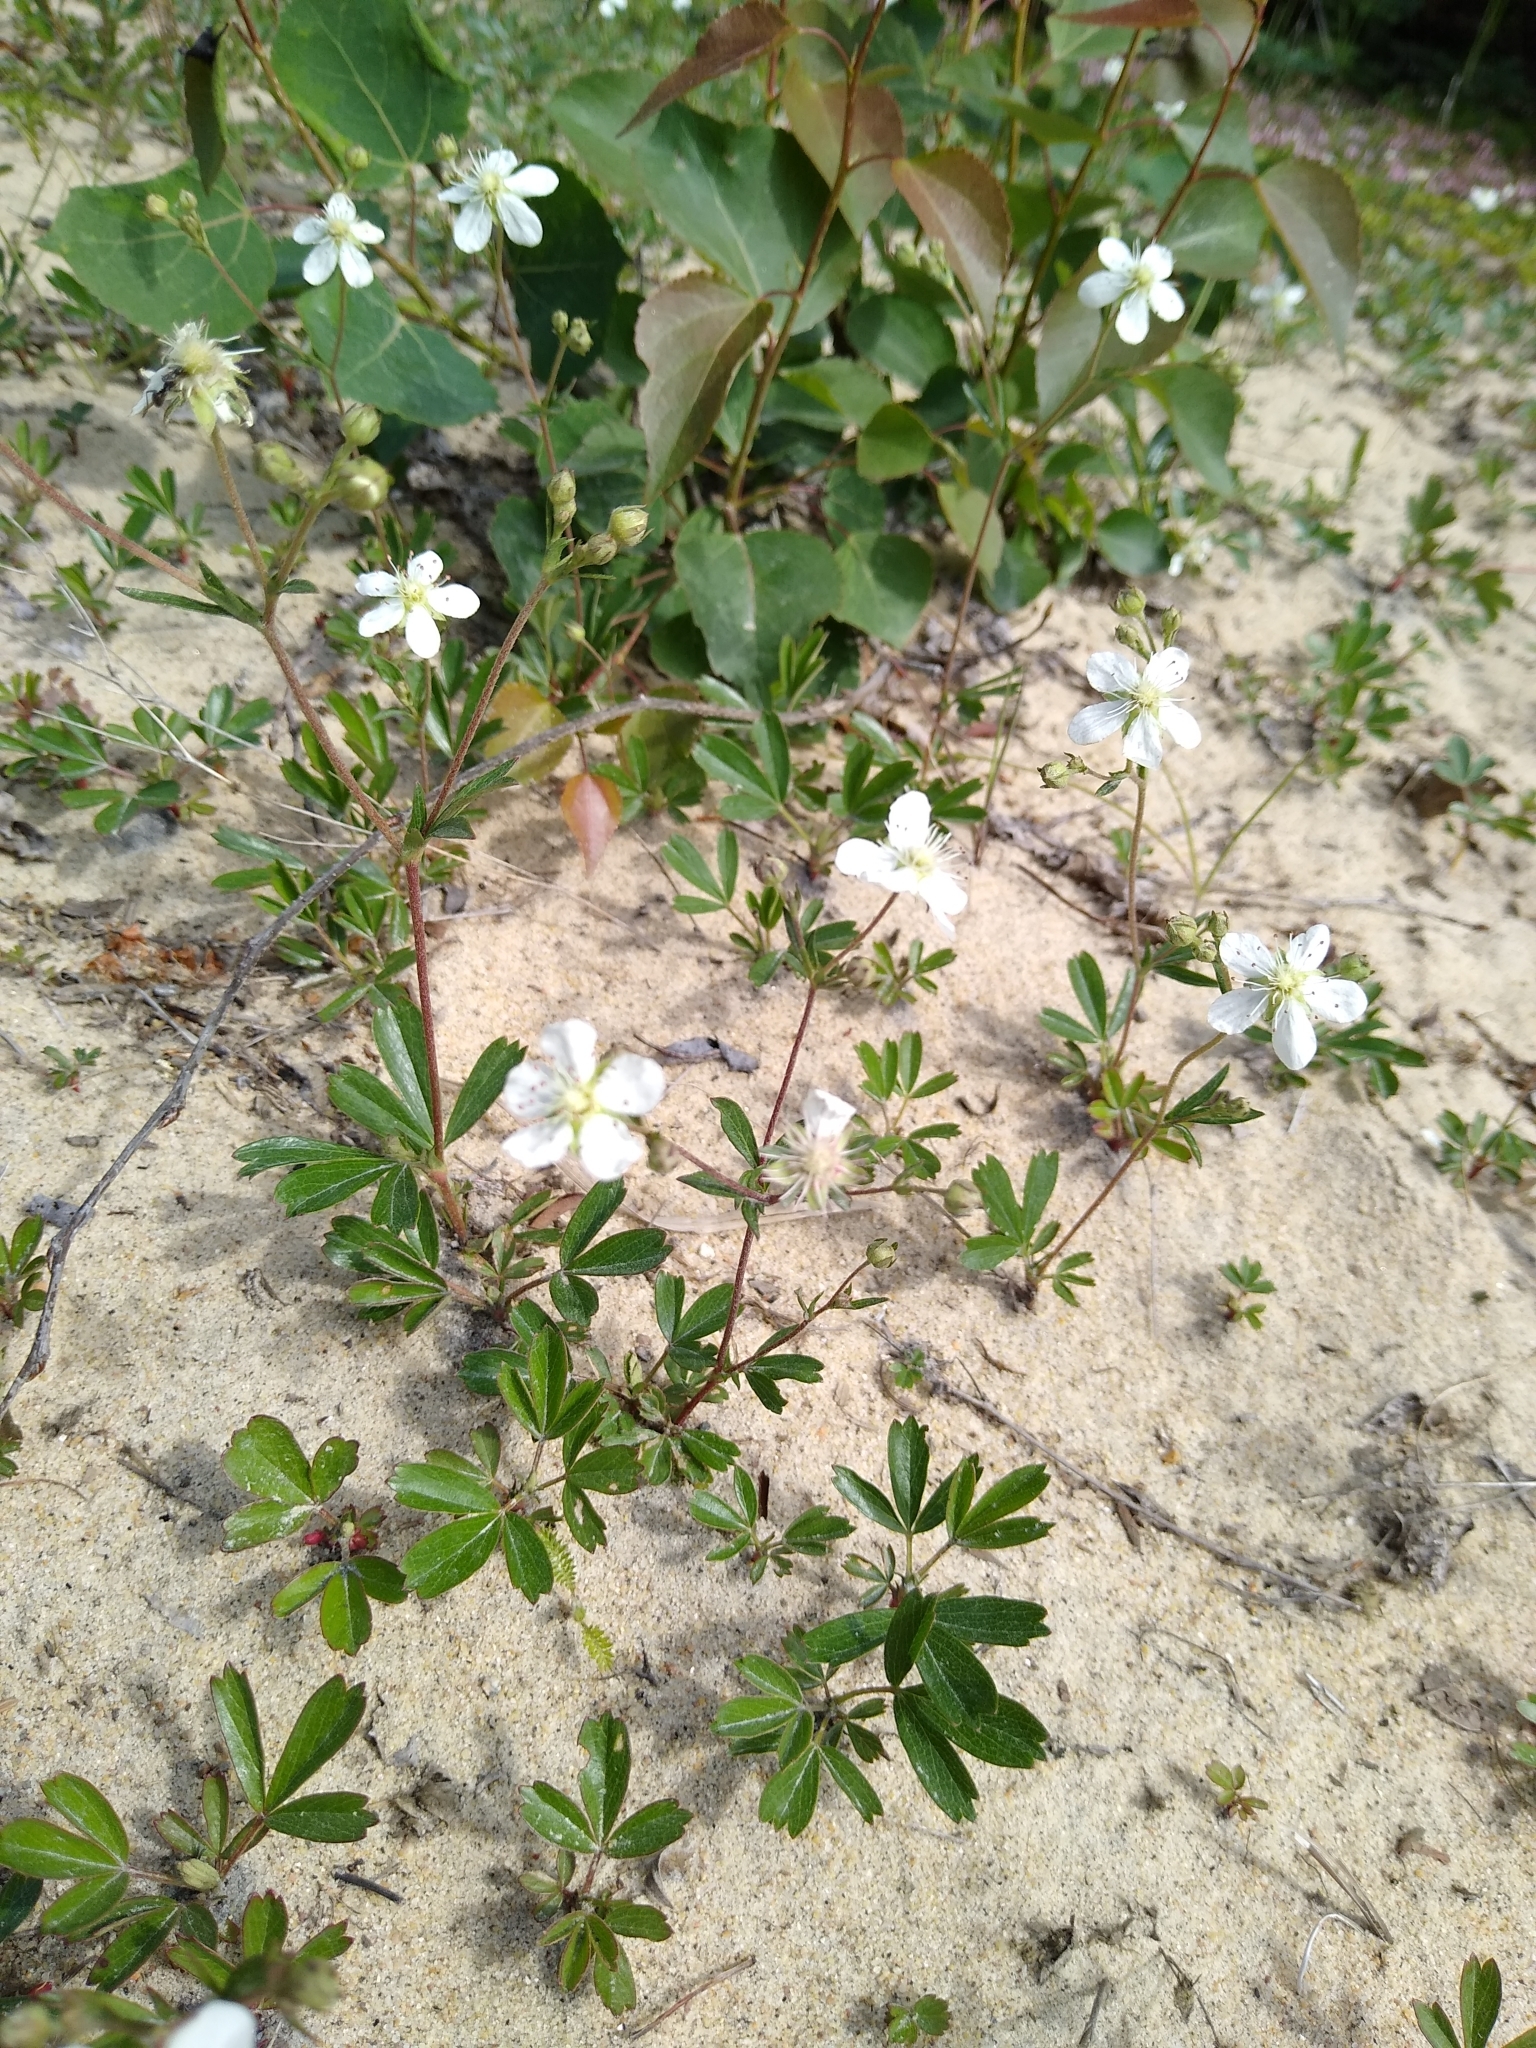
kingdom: Plantae
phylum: Tracheophyta
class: Magnoliopsida
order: Rosales
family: Rosaceae
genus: Sibbaldia
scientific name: Sibbaldia tridentata
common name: Three-toothed cinquefoil
